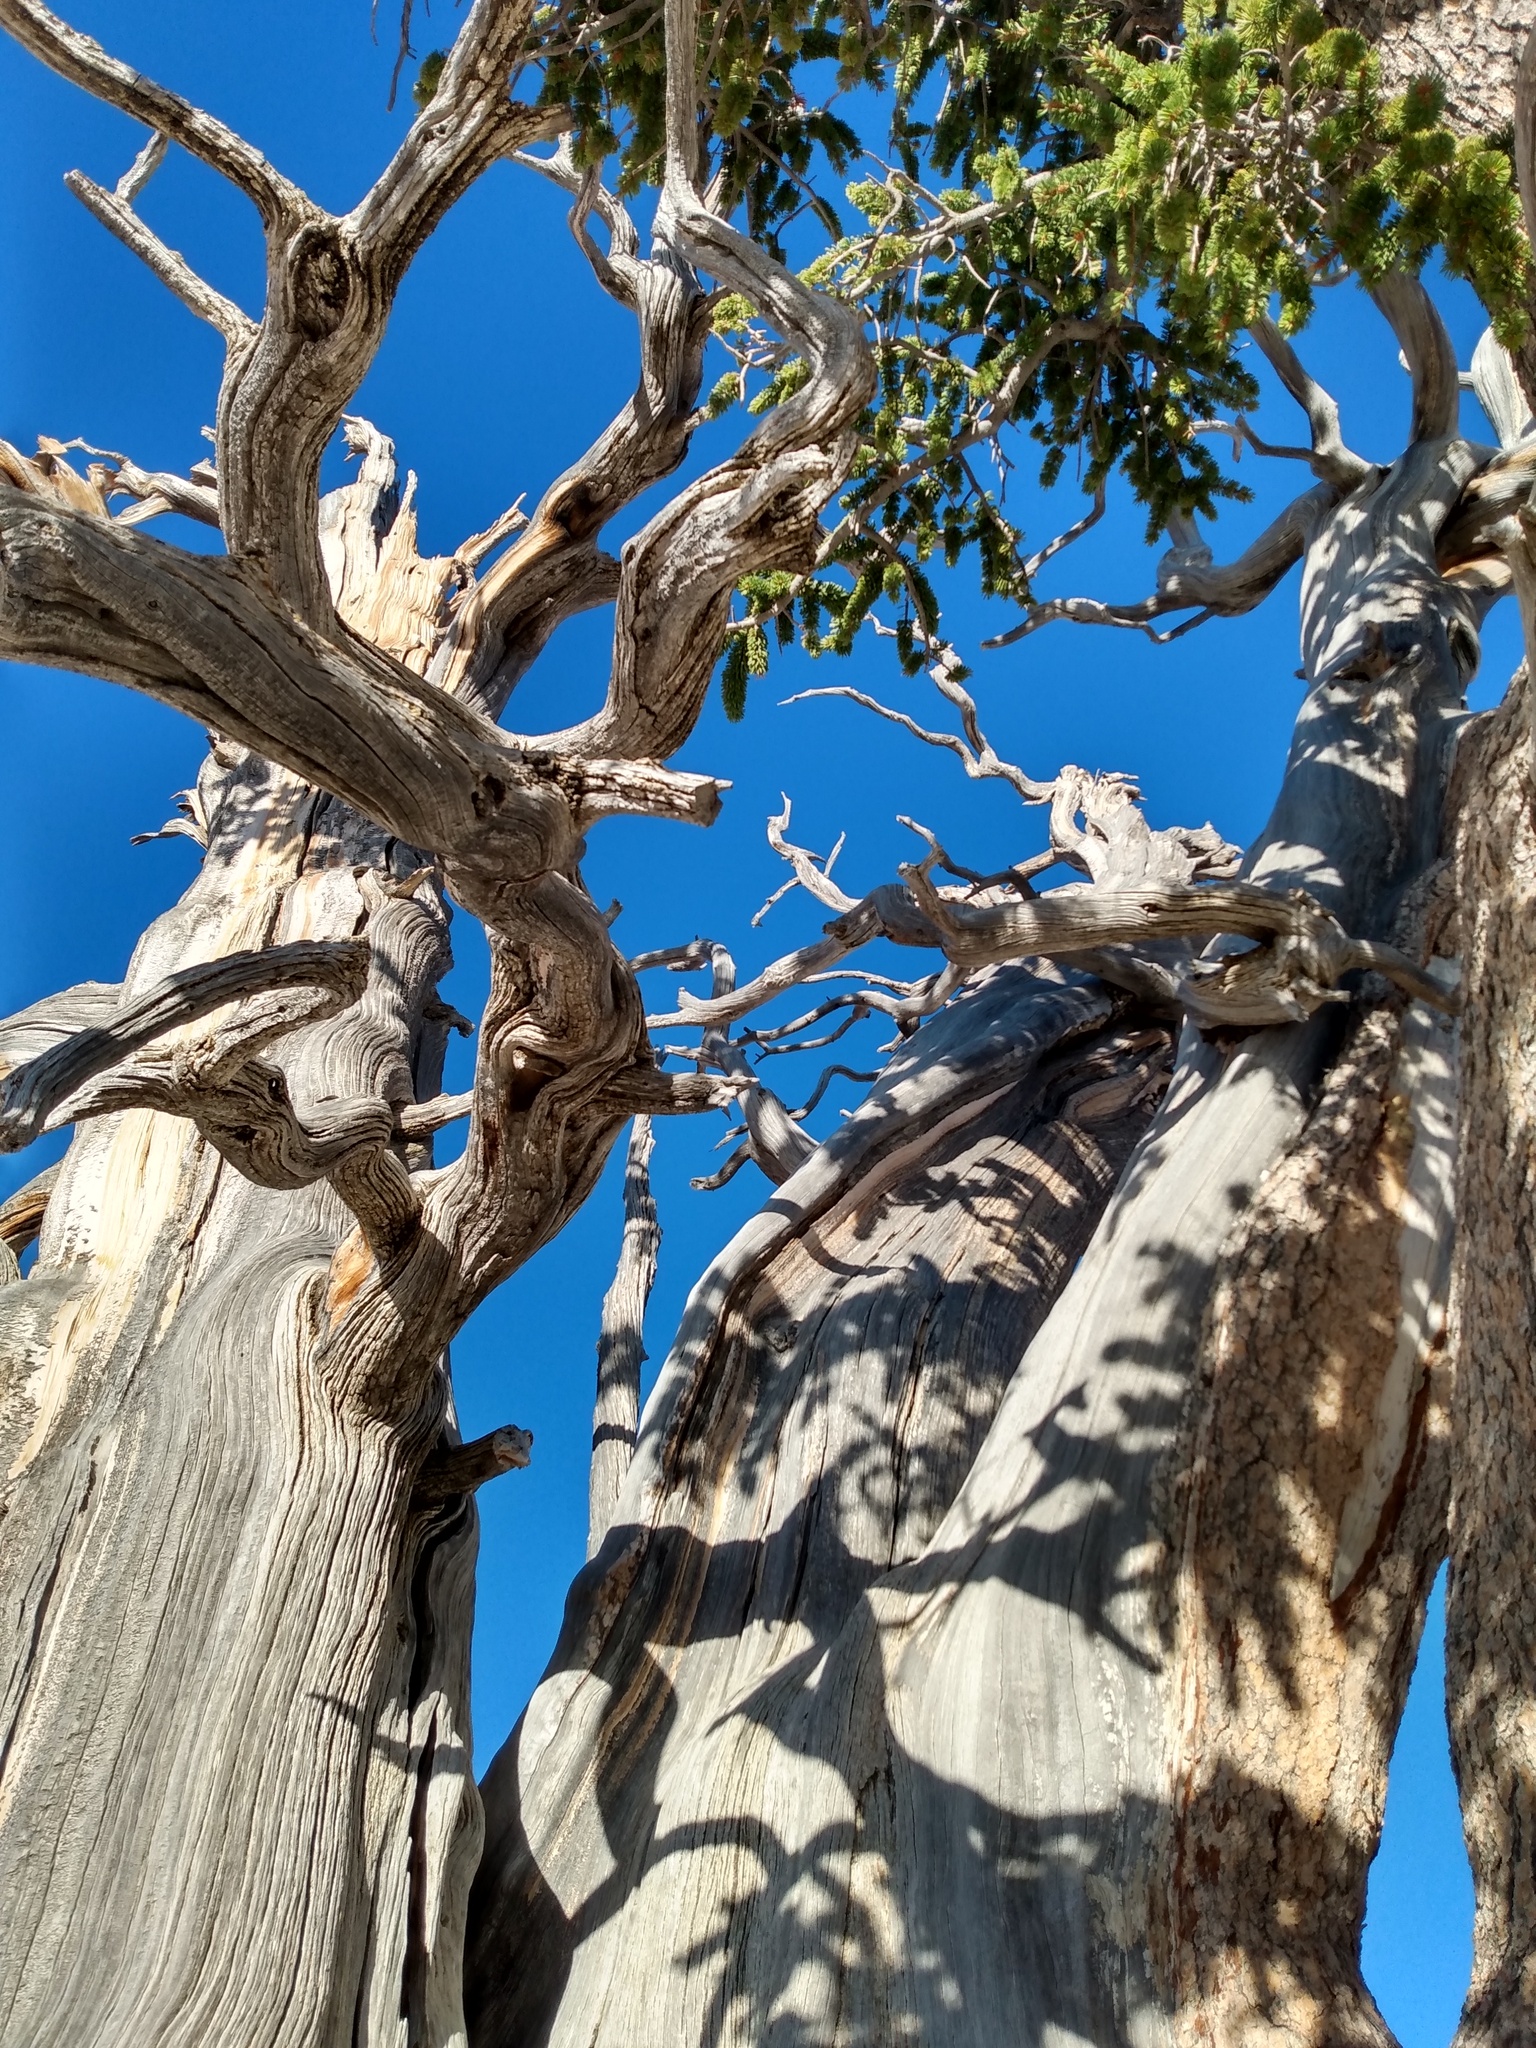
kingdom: Plantae
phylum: Tracheophyta
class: Pinopsida
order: Pinales
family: Pinaceae
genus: Pinus
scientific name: Pinus longaeva
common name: Intermountain bristlecone pine
